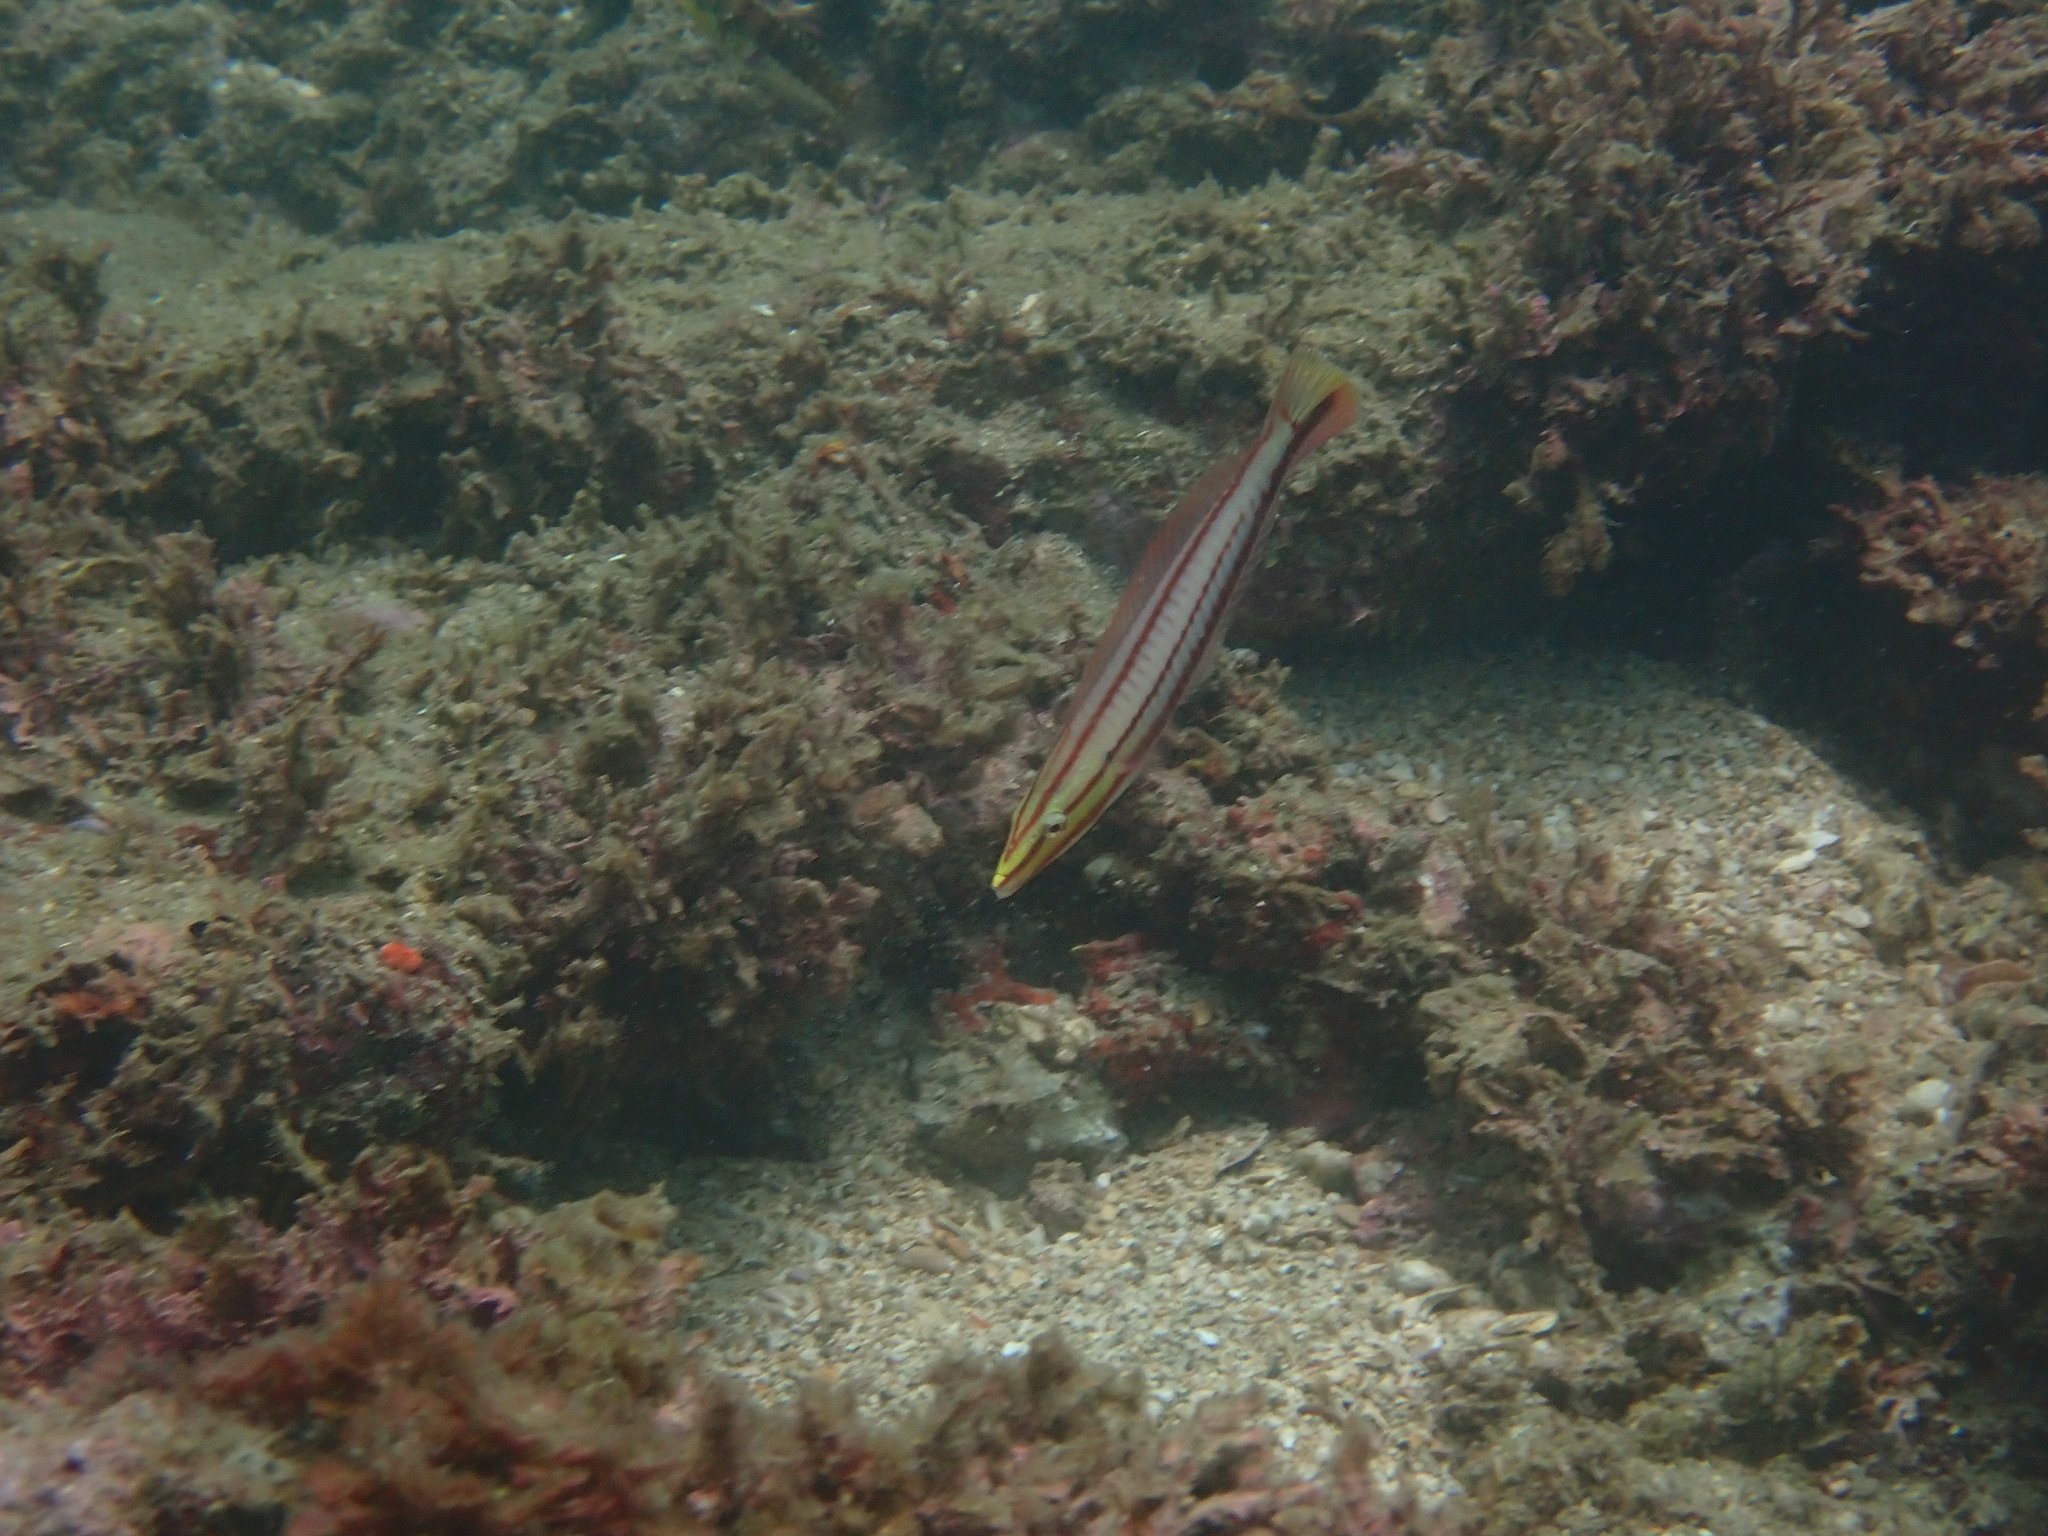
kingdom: Animalia
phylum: Chordata
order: Perciformes
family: Labridae
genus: Hologymnosus
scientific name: Hologymnosus doliatus
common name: Pastel ringwrasse
